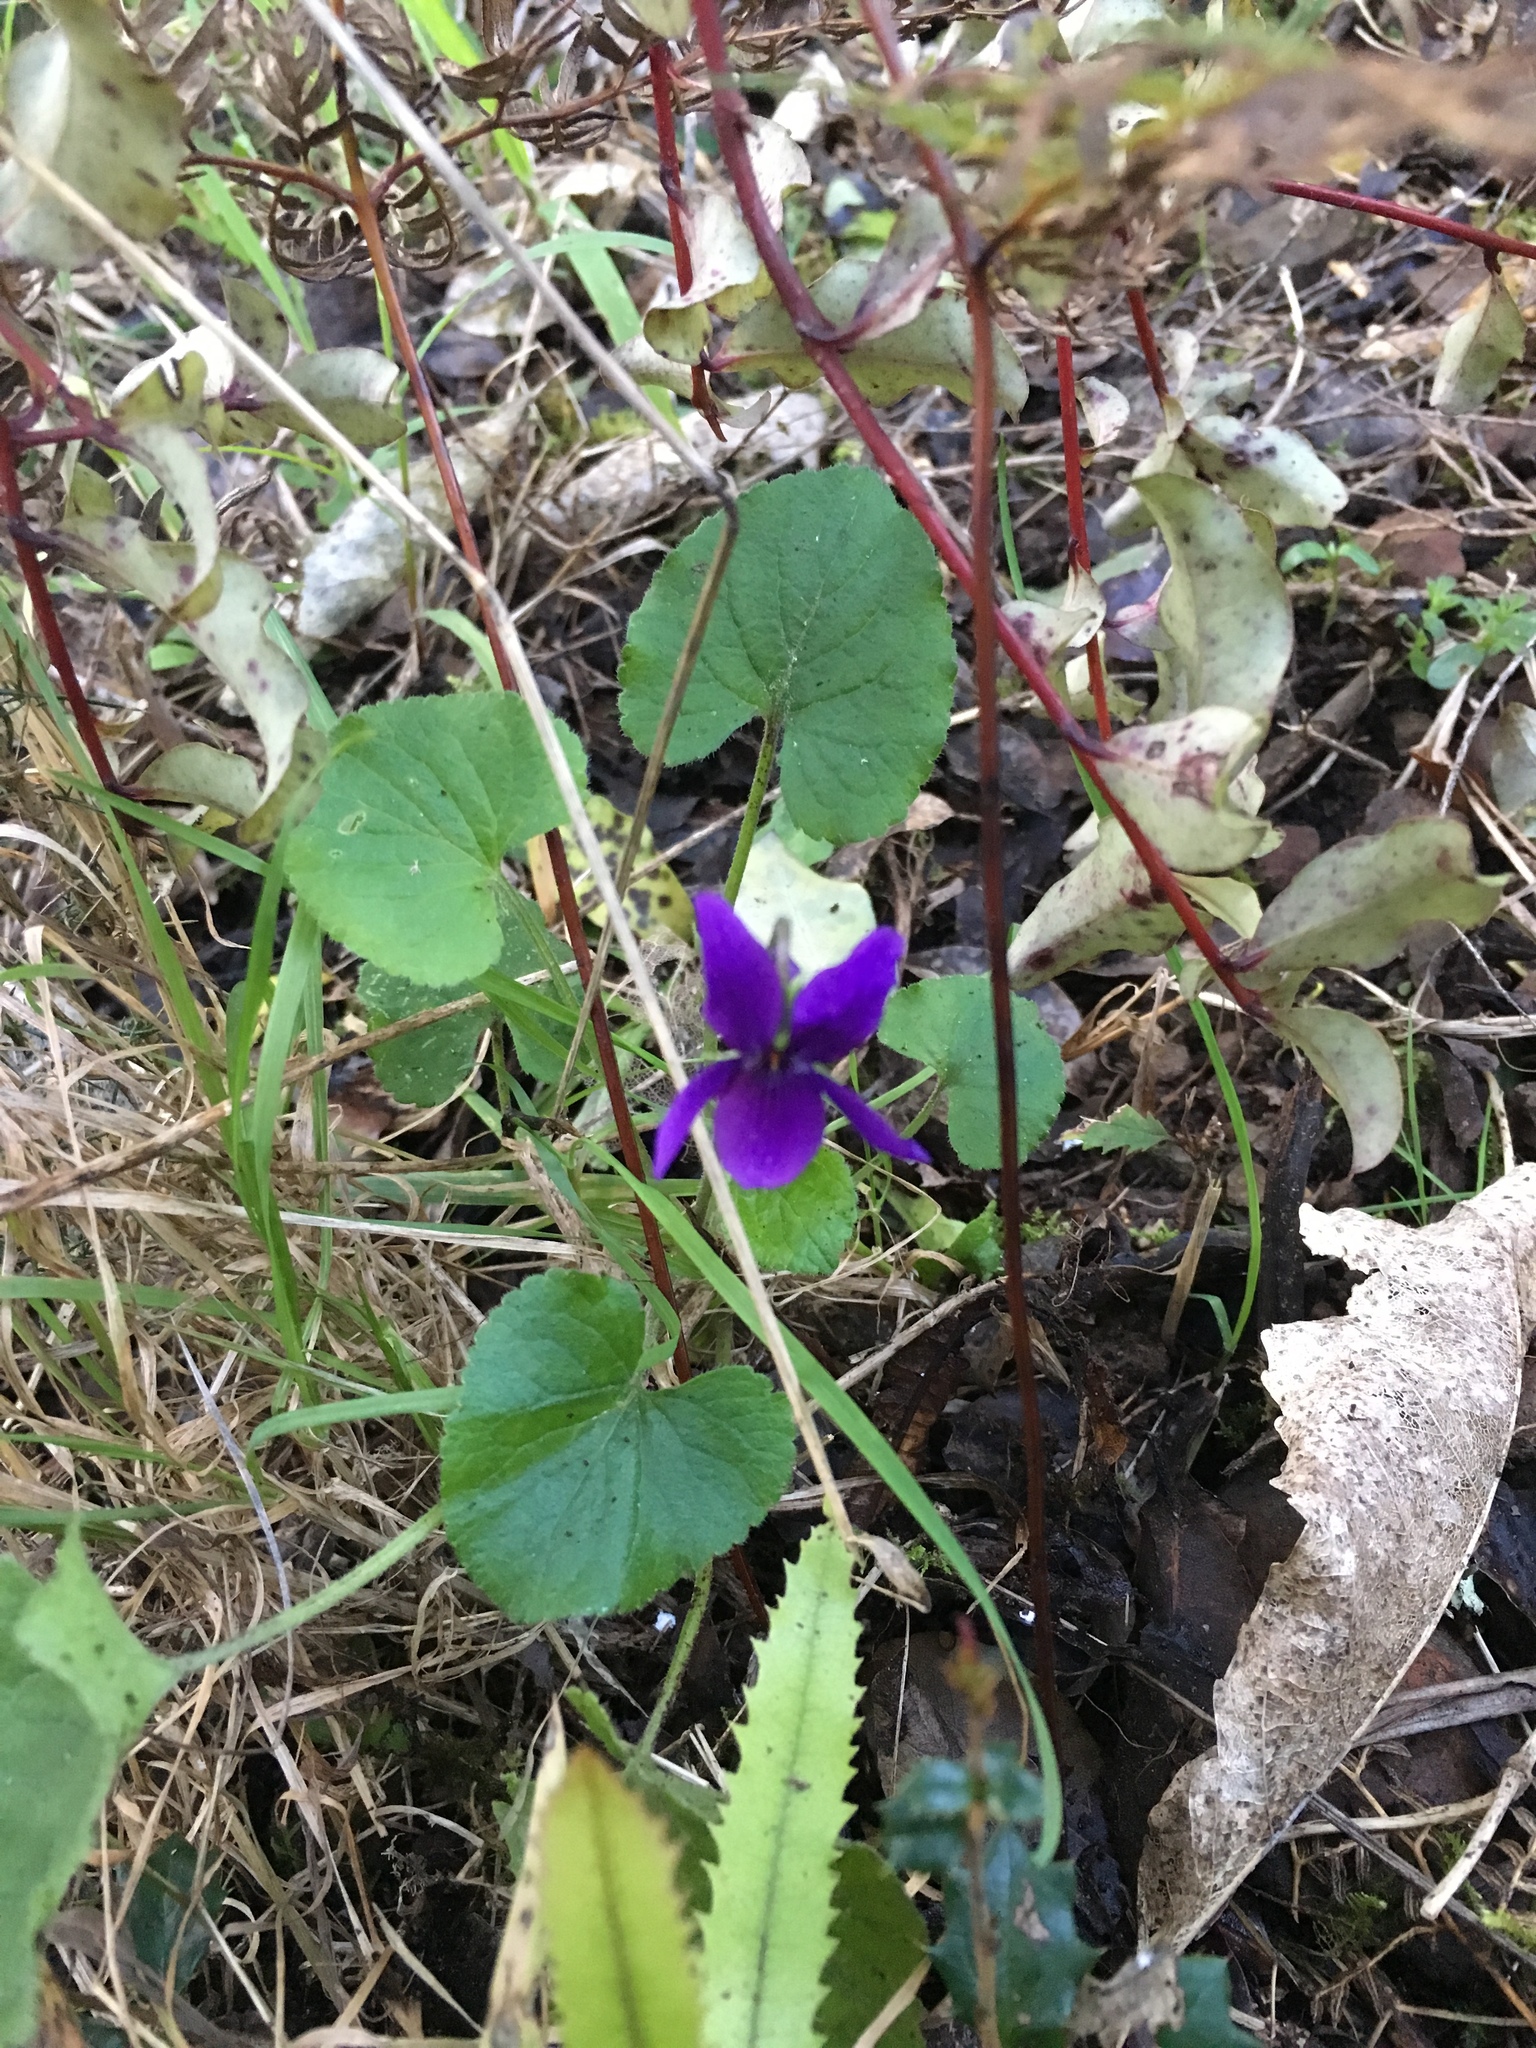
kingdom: Plantae
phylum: Tracheophyta
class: Magnoliopsida
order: Malpighiales
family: Violaceae
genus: Viola
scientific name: Viola odorata
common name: Sweet violet
